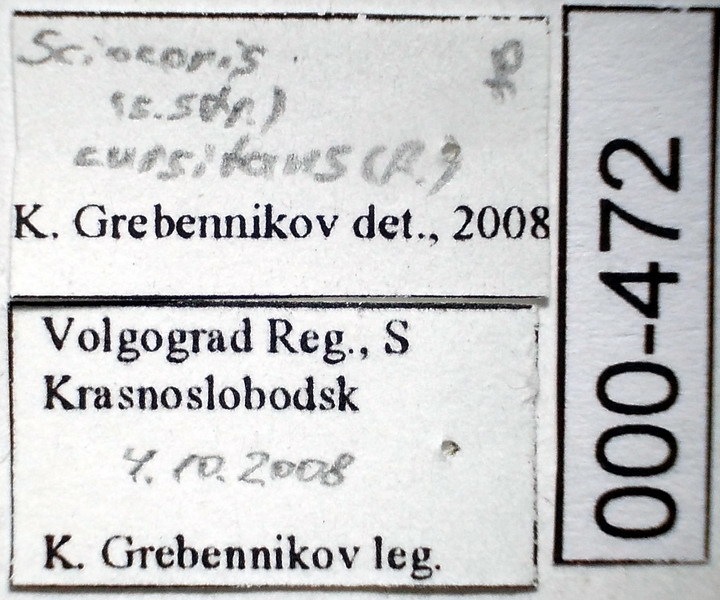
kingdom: Animalia
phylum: Arthropoda
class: Insecta
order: Hemiptera
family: Pentatomidae
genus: Sciocoris
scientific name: Sciocoris cursitans
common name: Sandrunner
